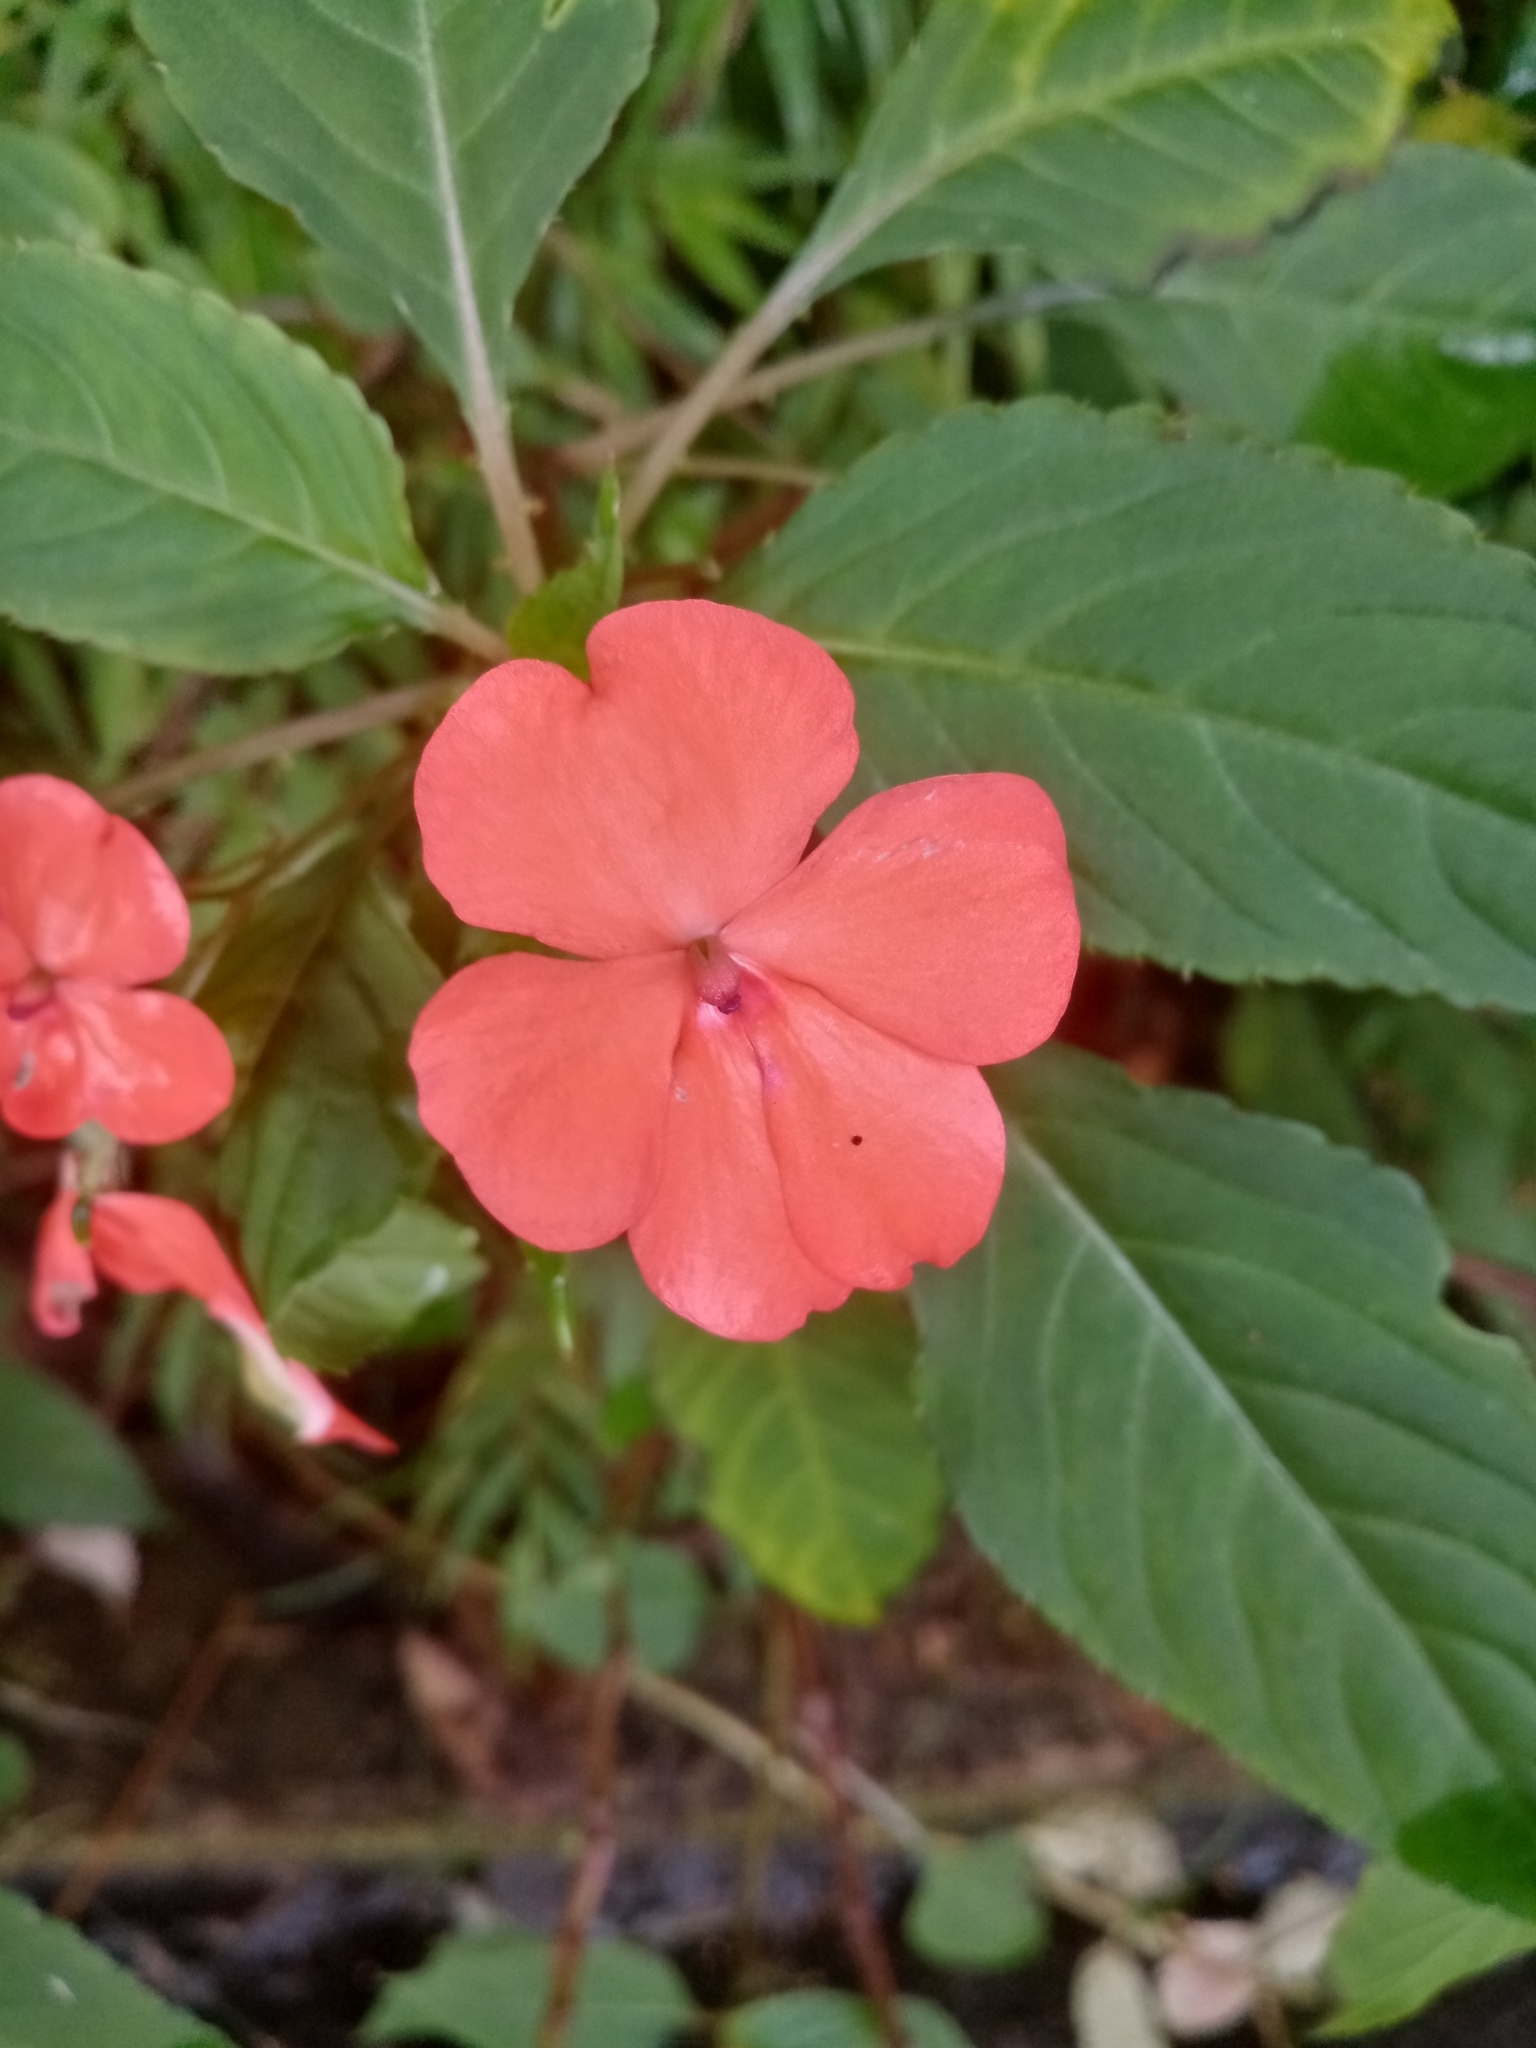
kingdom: Plantae
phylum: Tracheophyta
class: Magnoliopsida
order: Ericales
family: Balsaminaceae
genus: Impatiens
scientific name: Impatiens walleriana
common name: Buzzy lizzy
